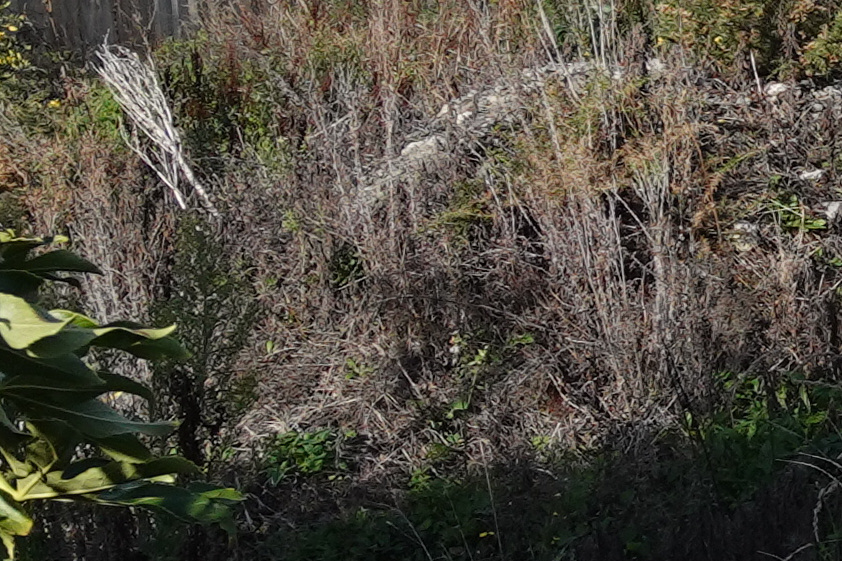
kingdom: Plantae
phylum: Tracheophyta
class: Magnoliopsida
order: Asterales
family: Asteraceae
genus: Senecio
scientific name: Senecio quadridentatus
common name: Cotton fireweed
